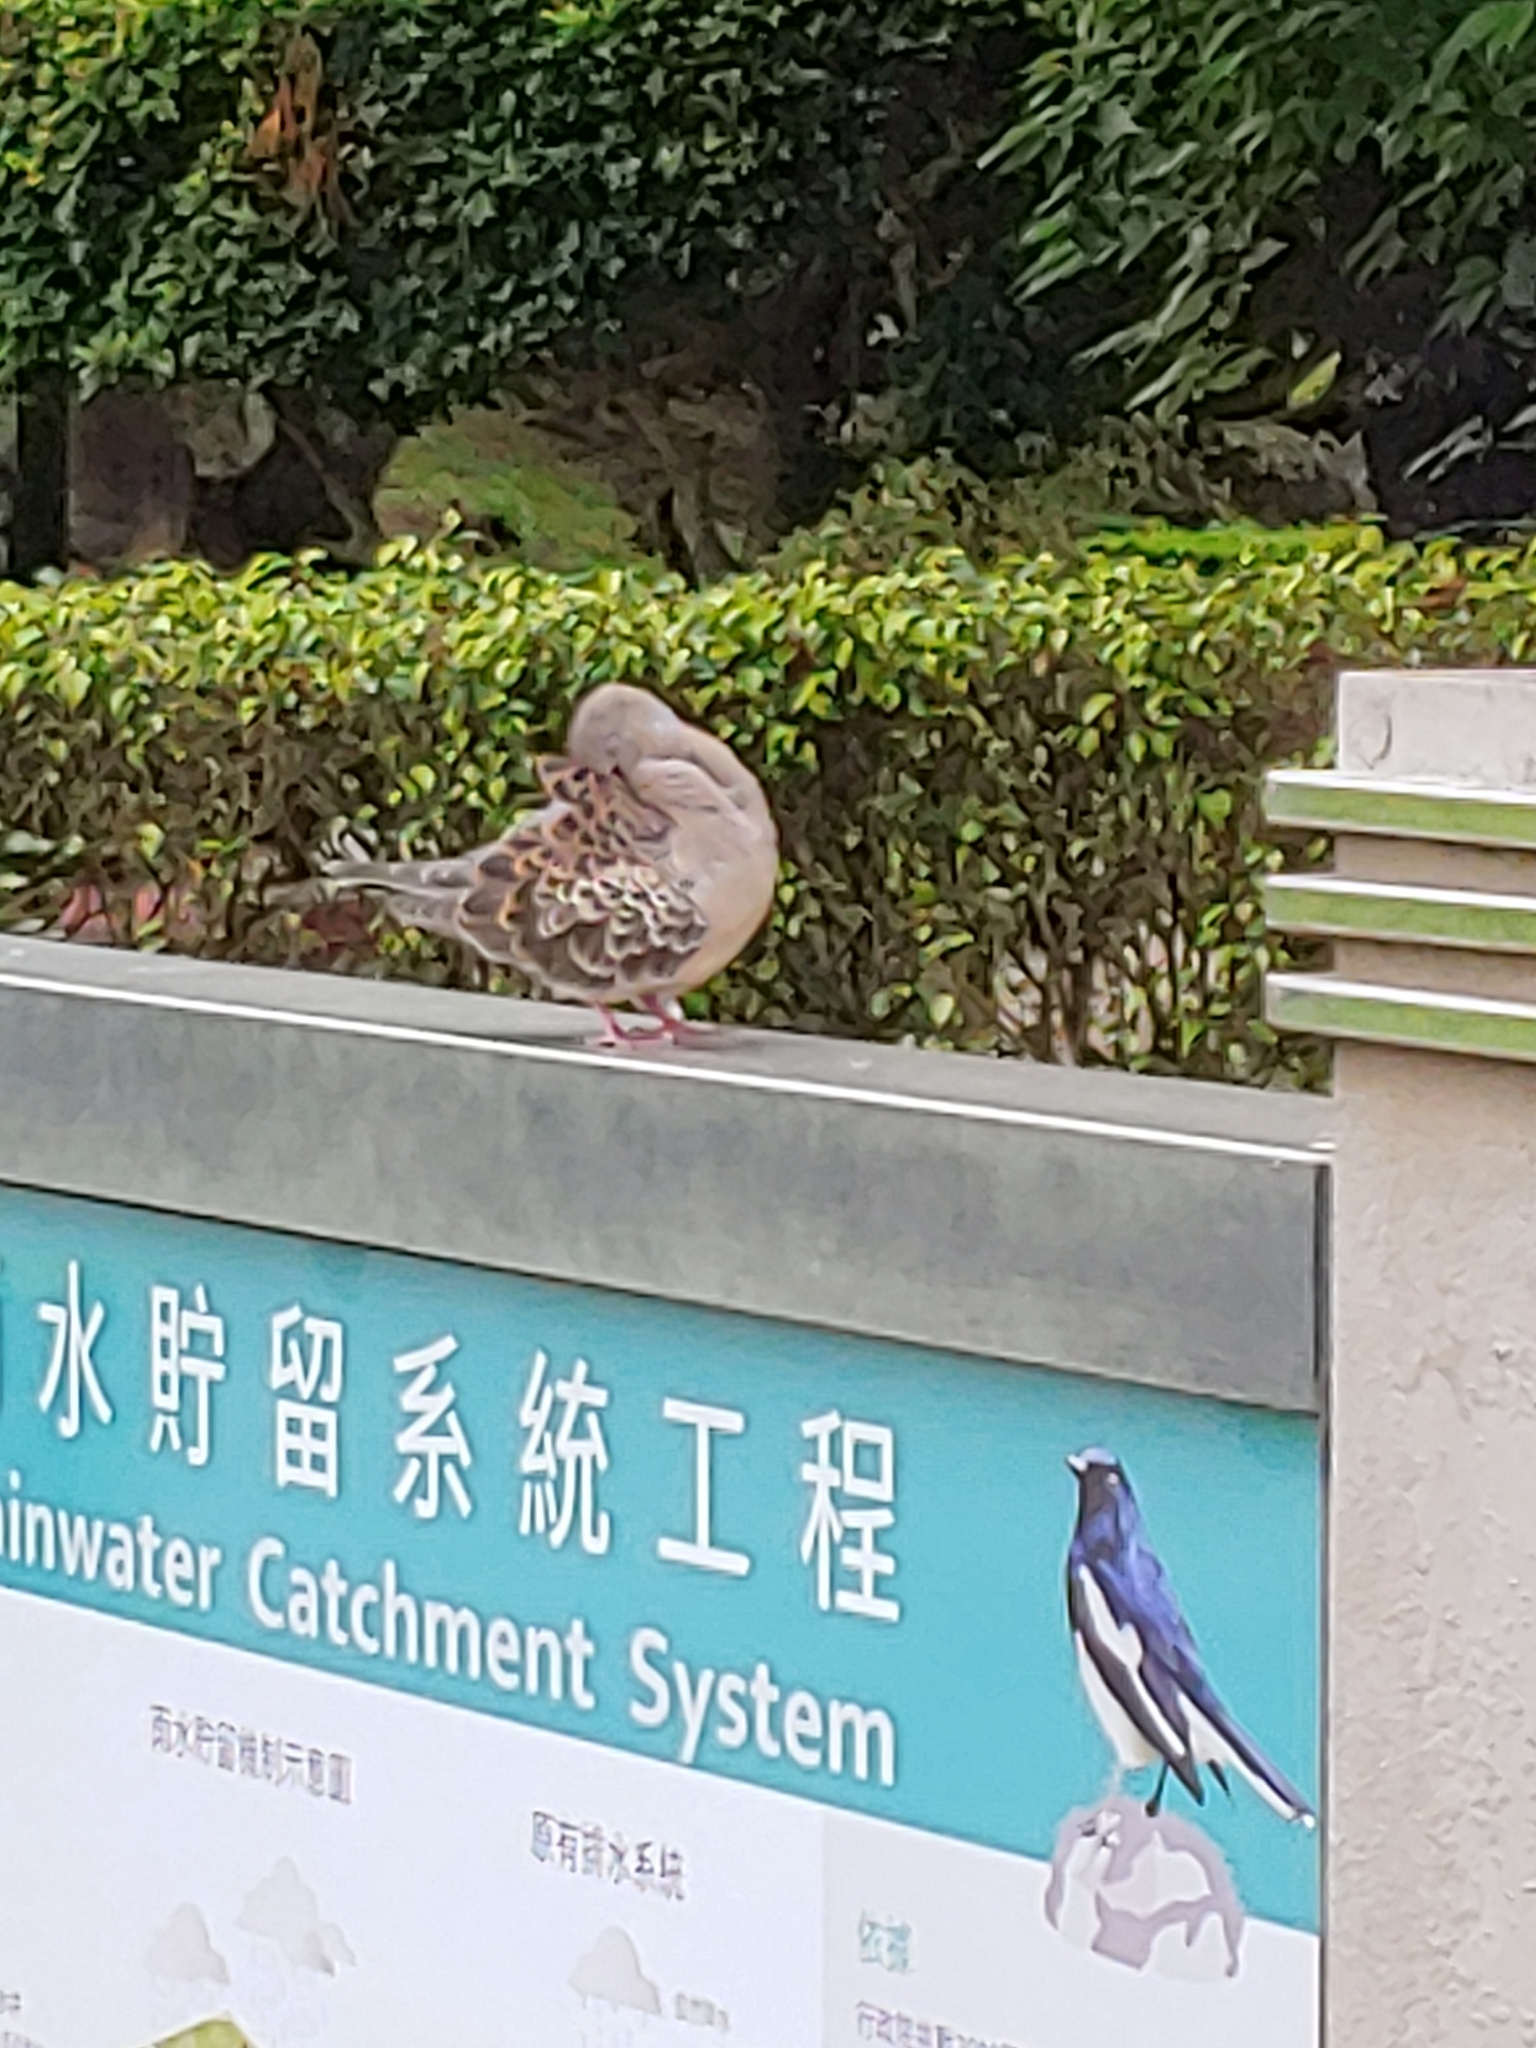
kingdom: Animalia
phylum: Chordata
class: Aves
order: Columbiformes
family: Columbidae
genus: Streptopelia
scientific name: Streptopelia orientalis
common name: Oriental turtle dove
